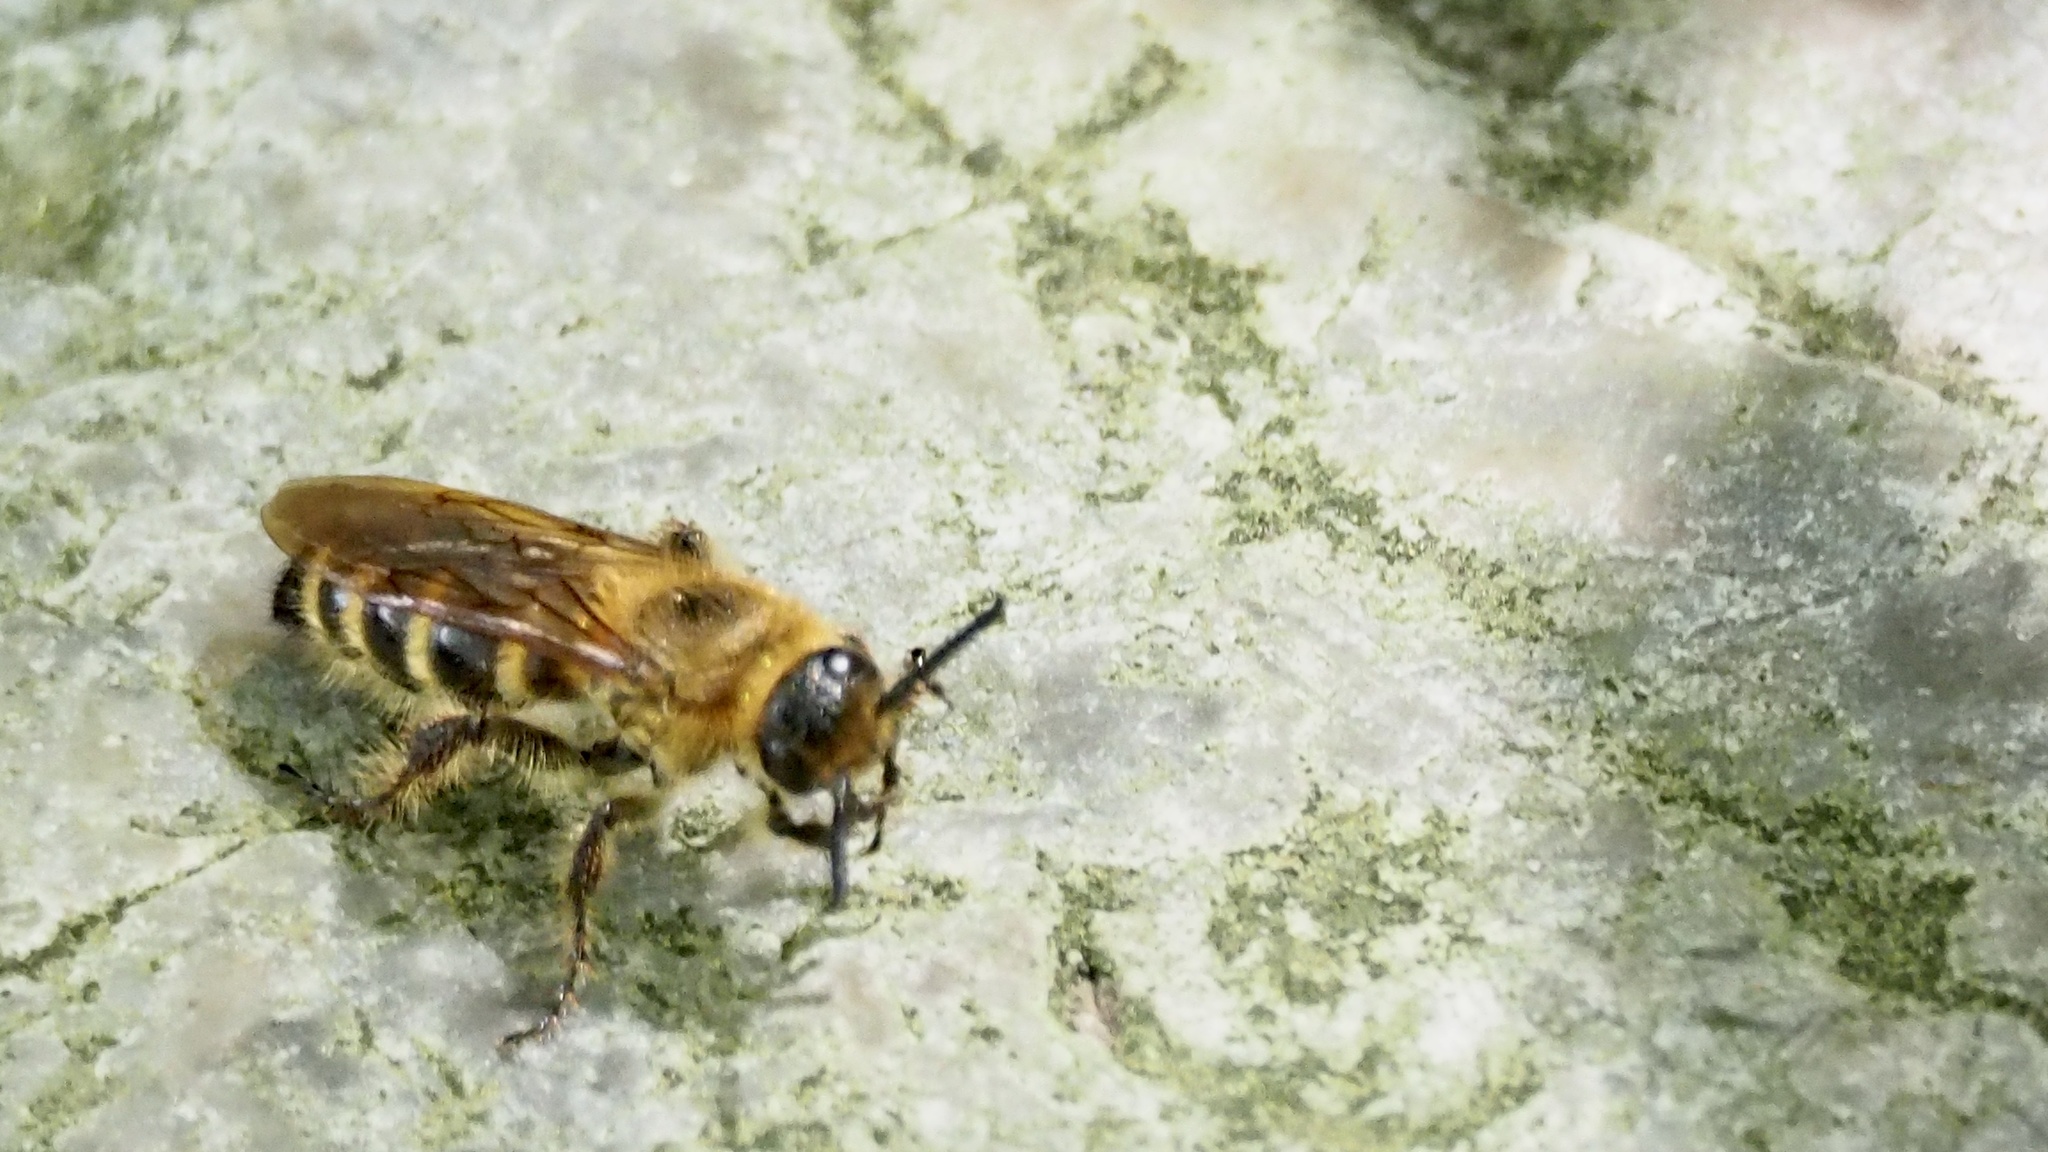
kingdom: Animalia
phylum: Arthropoda
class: Insecta
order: Hymenoptera
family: Scoliidae
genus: Campsomeris
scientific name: Campsomeris prismatica
